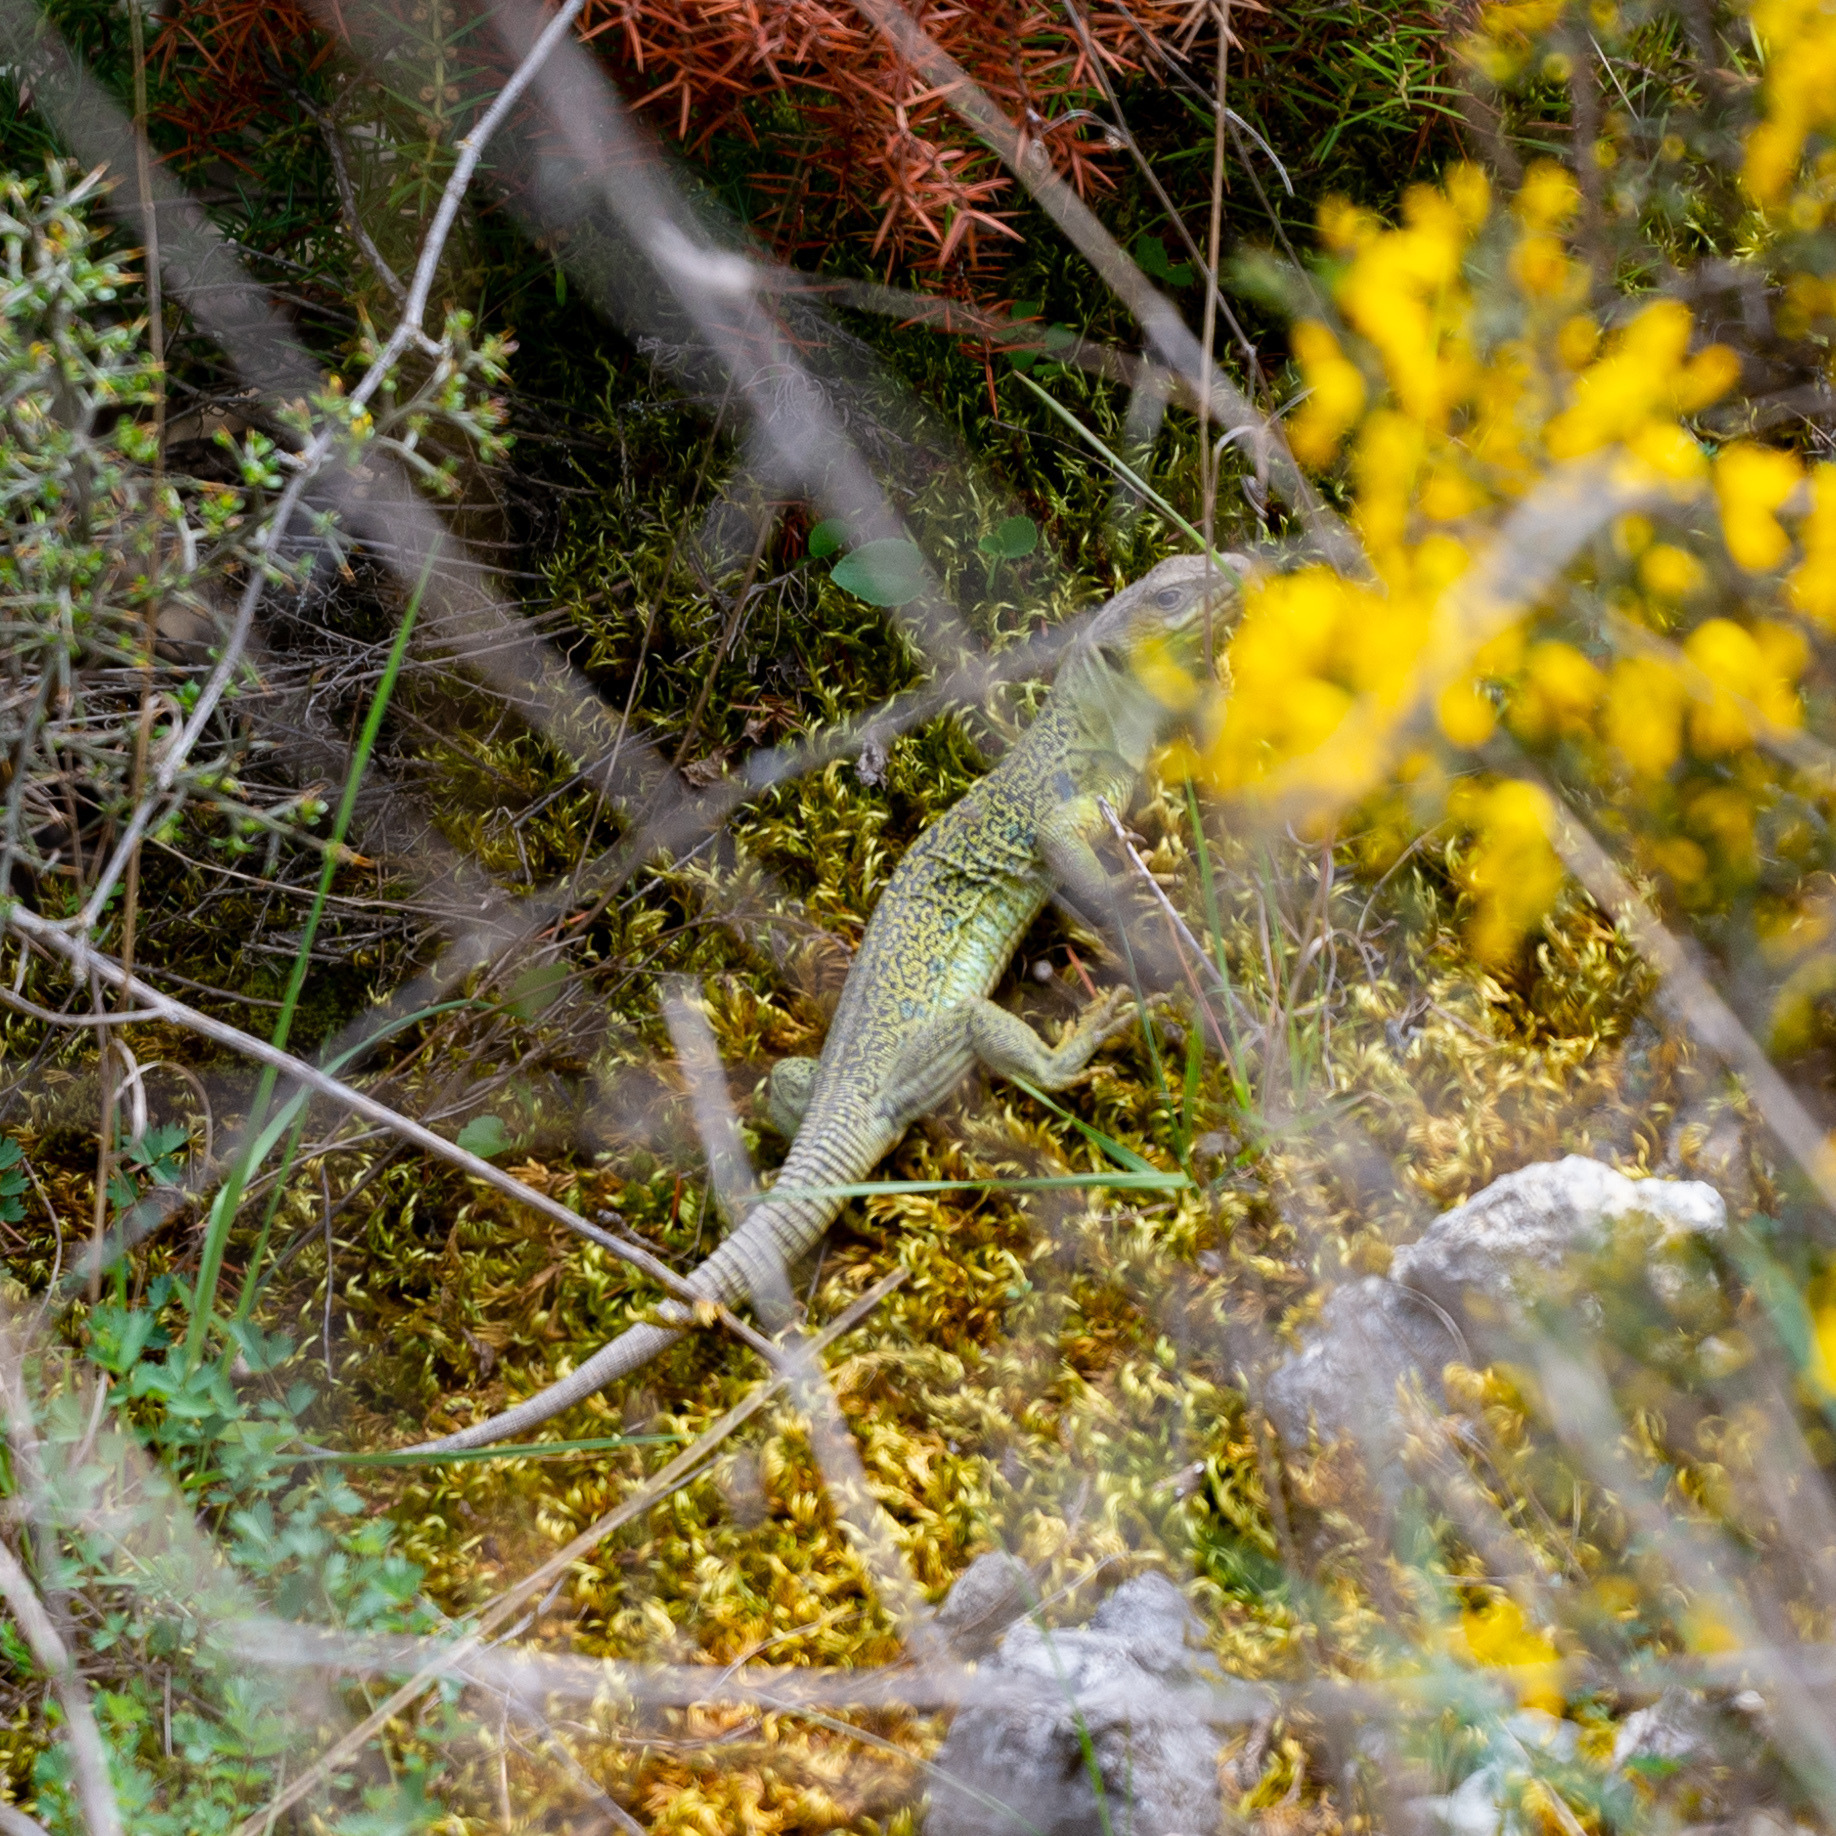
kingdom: Animalia
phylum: Chordata
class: Squamata
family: Lacertidae
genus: Timon
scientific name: Timon lepidus
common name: Ocellated lizard
